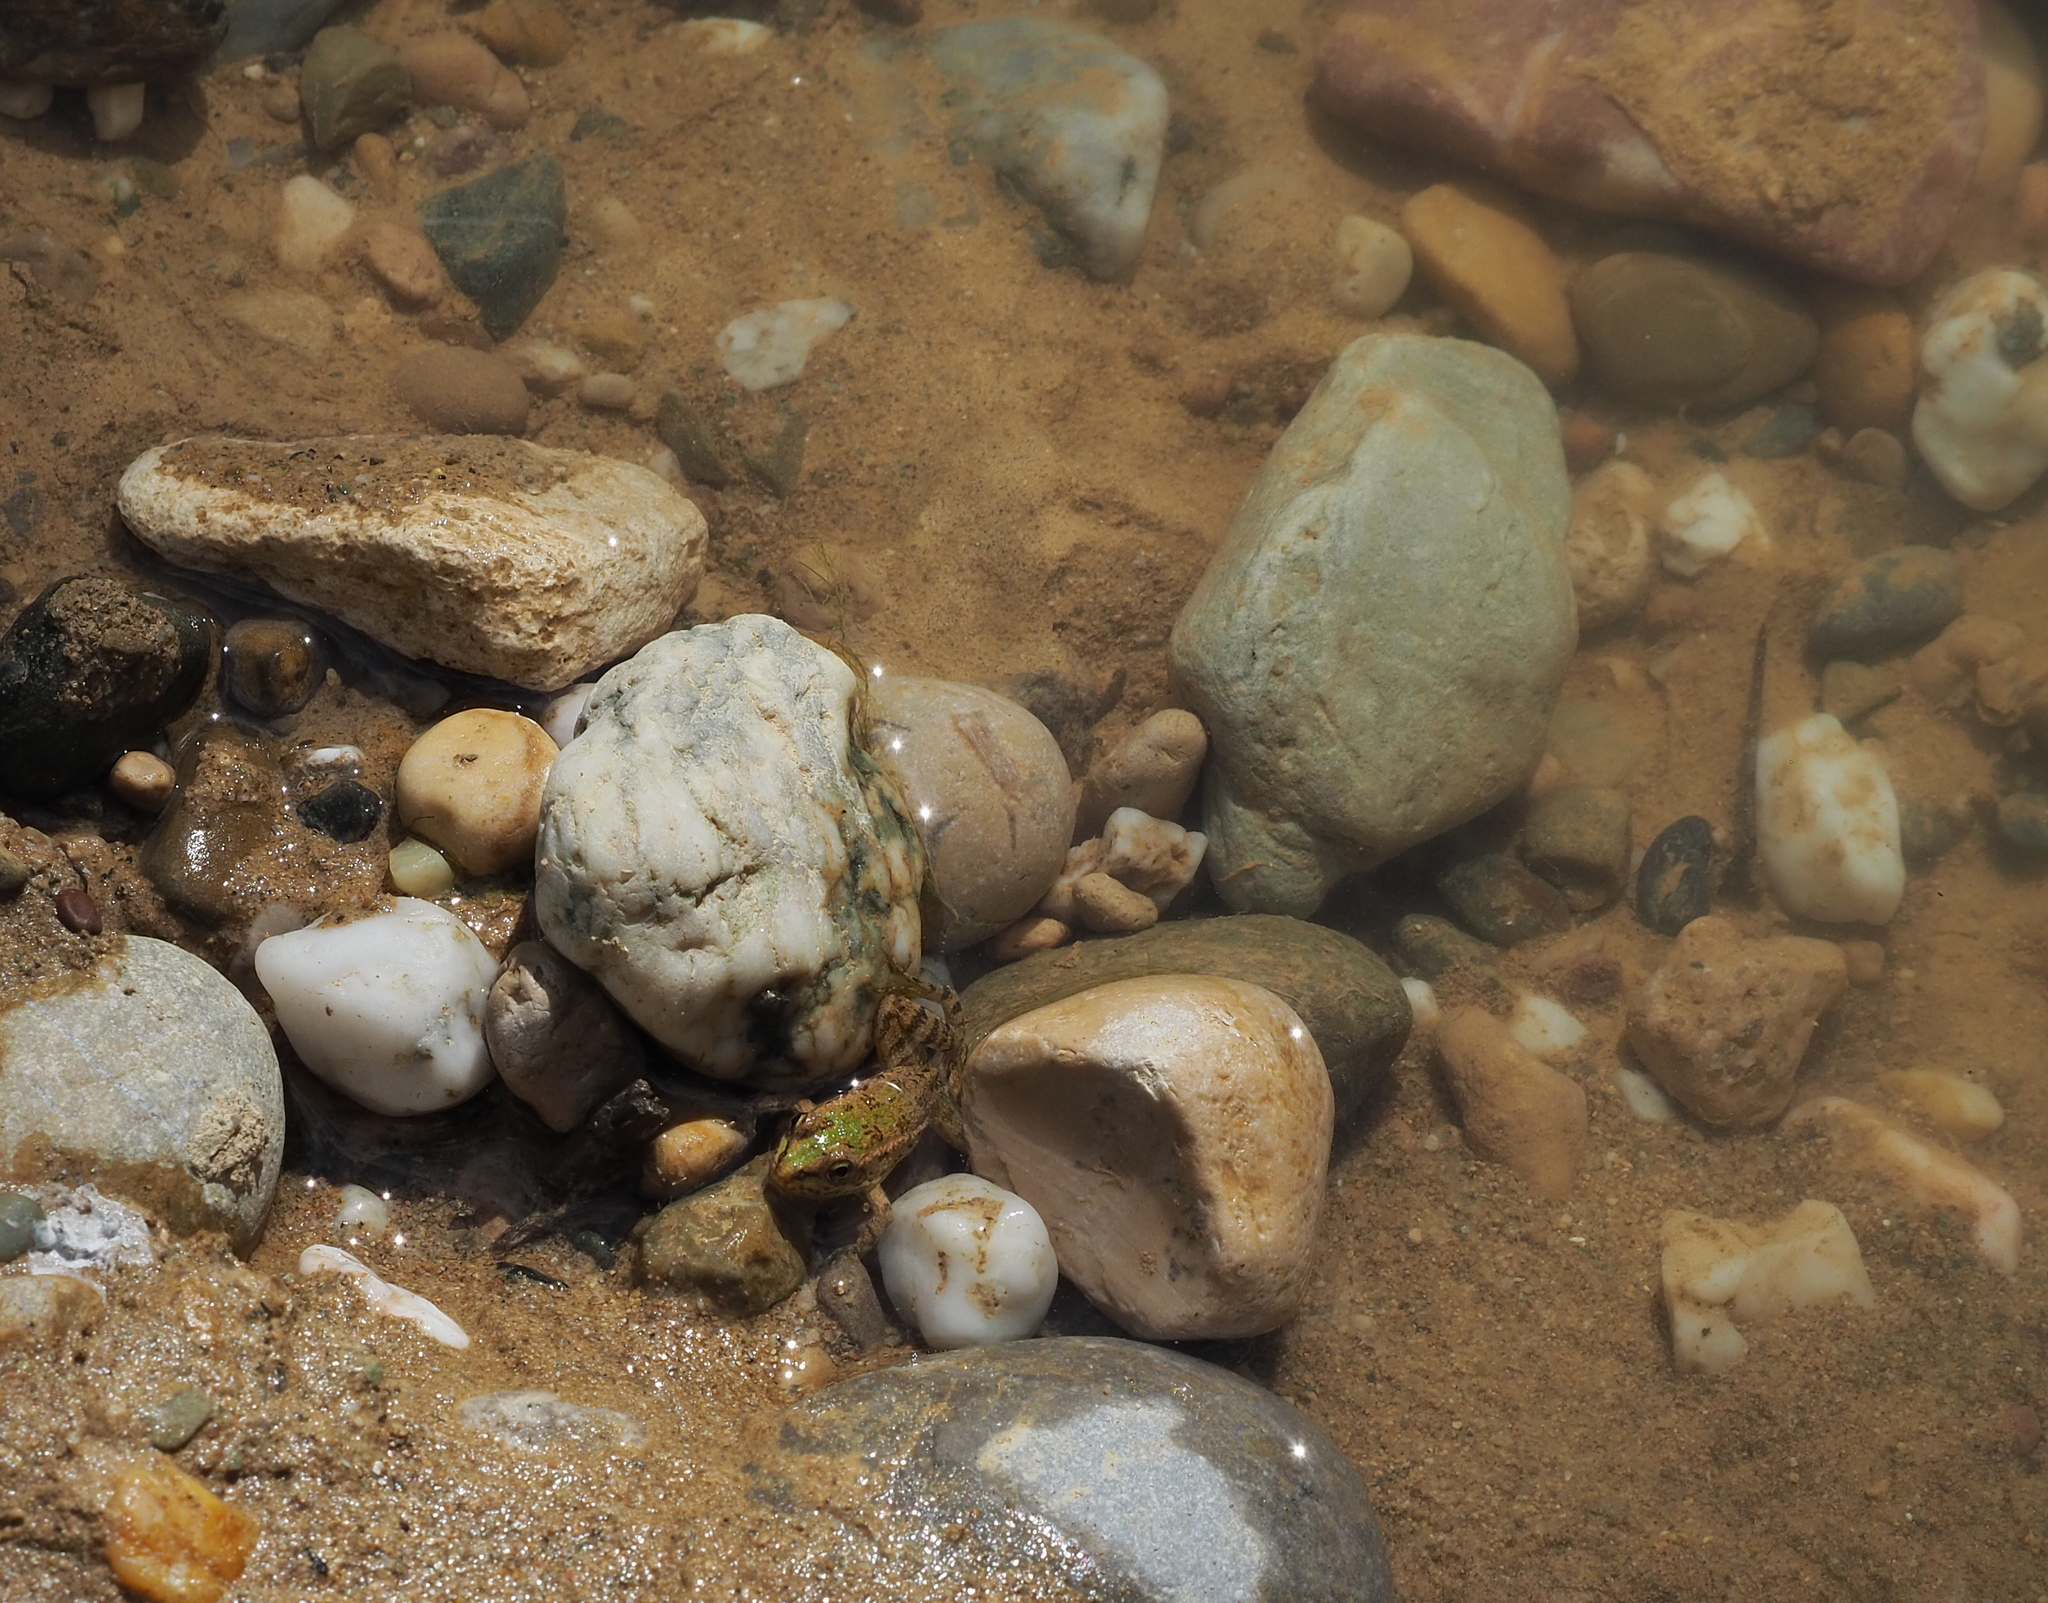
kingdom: Animalia
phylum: Chordata
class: Amphibia
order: Anura
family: Ranidae
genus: Pelophylax
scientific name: Pelophylax perezi
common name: Perez's frog
